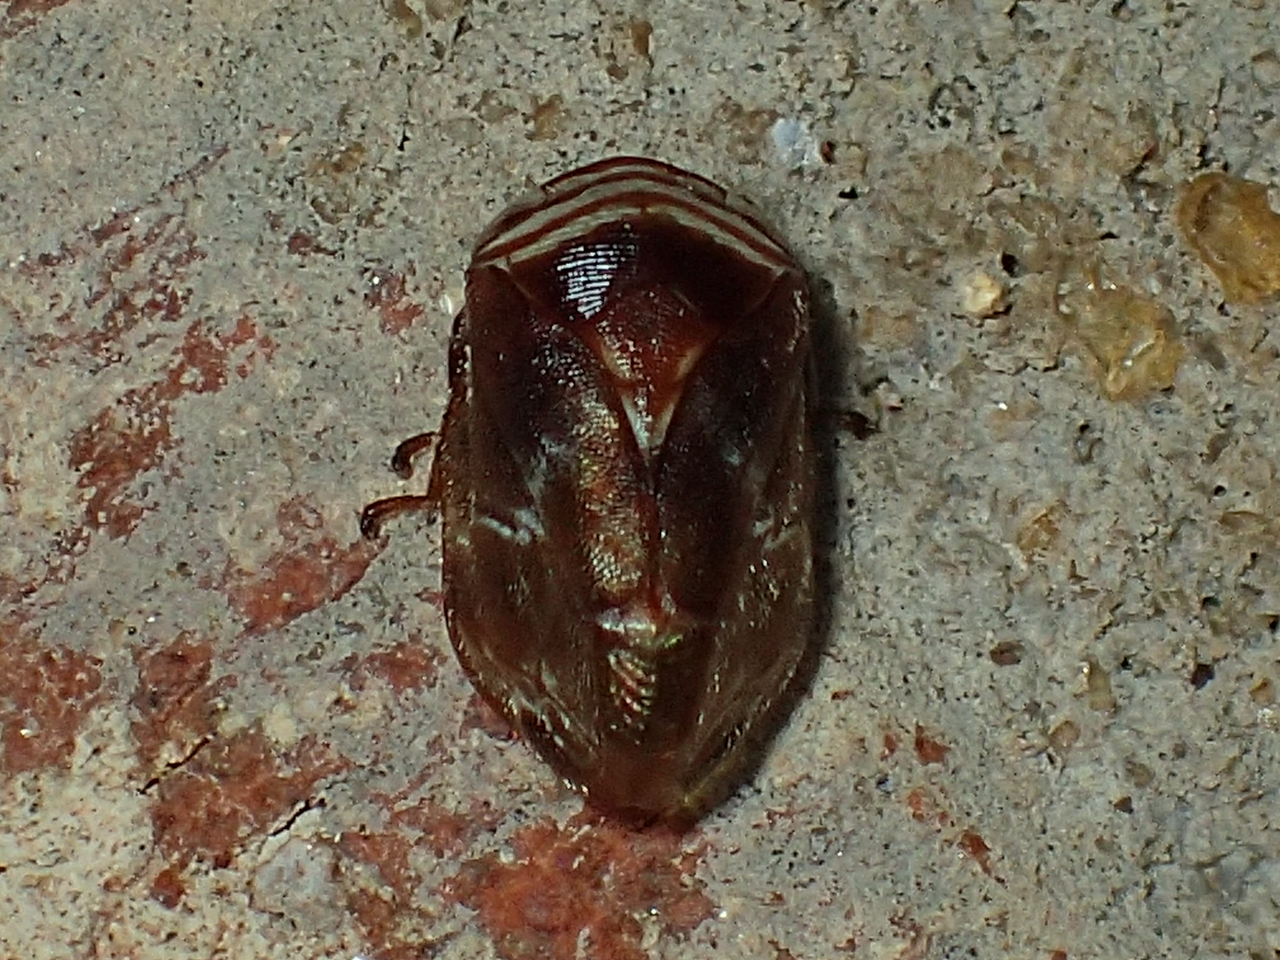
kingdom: Animalia
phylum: Arthropoda
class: Insecta
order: Hemiptera
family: Clastopteridae
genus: Clastoptera
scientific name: Clastoptera obtusa
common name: Alder spittlebug
